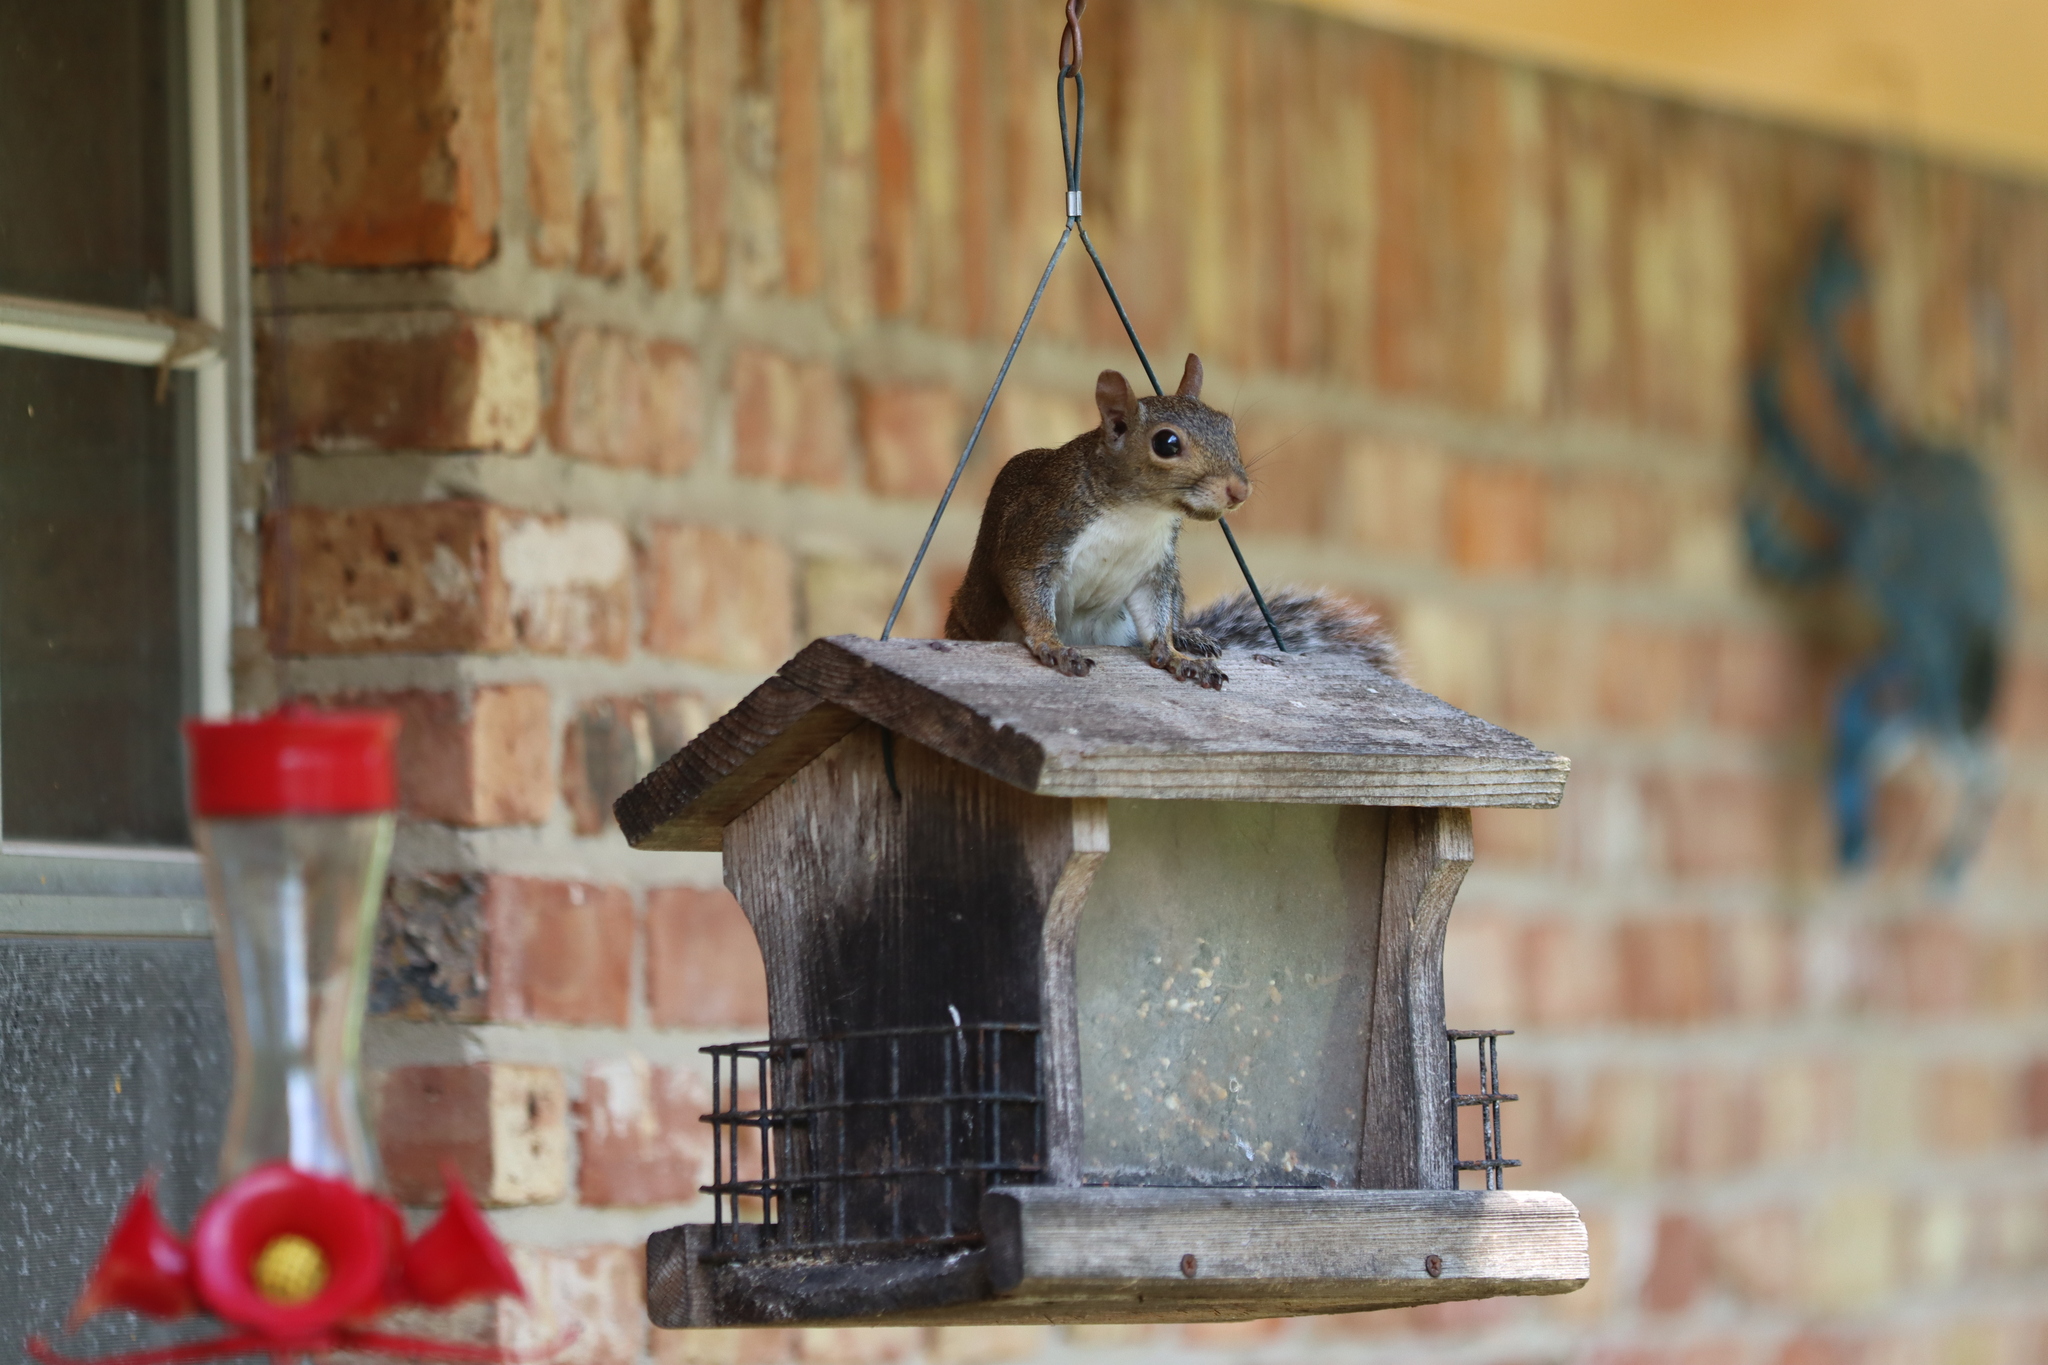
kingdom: Animalia
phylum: Chordata
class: Mammalia
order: Rodentia
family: Sciuridae
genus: Sciurus
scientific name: Sciurus carolinensis
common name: Eastern gray squirrel
